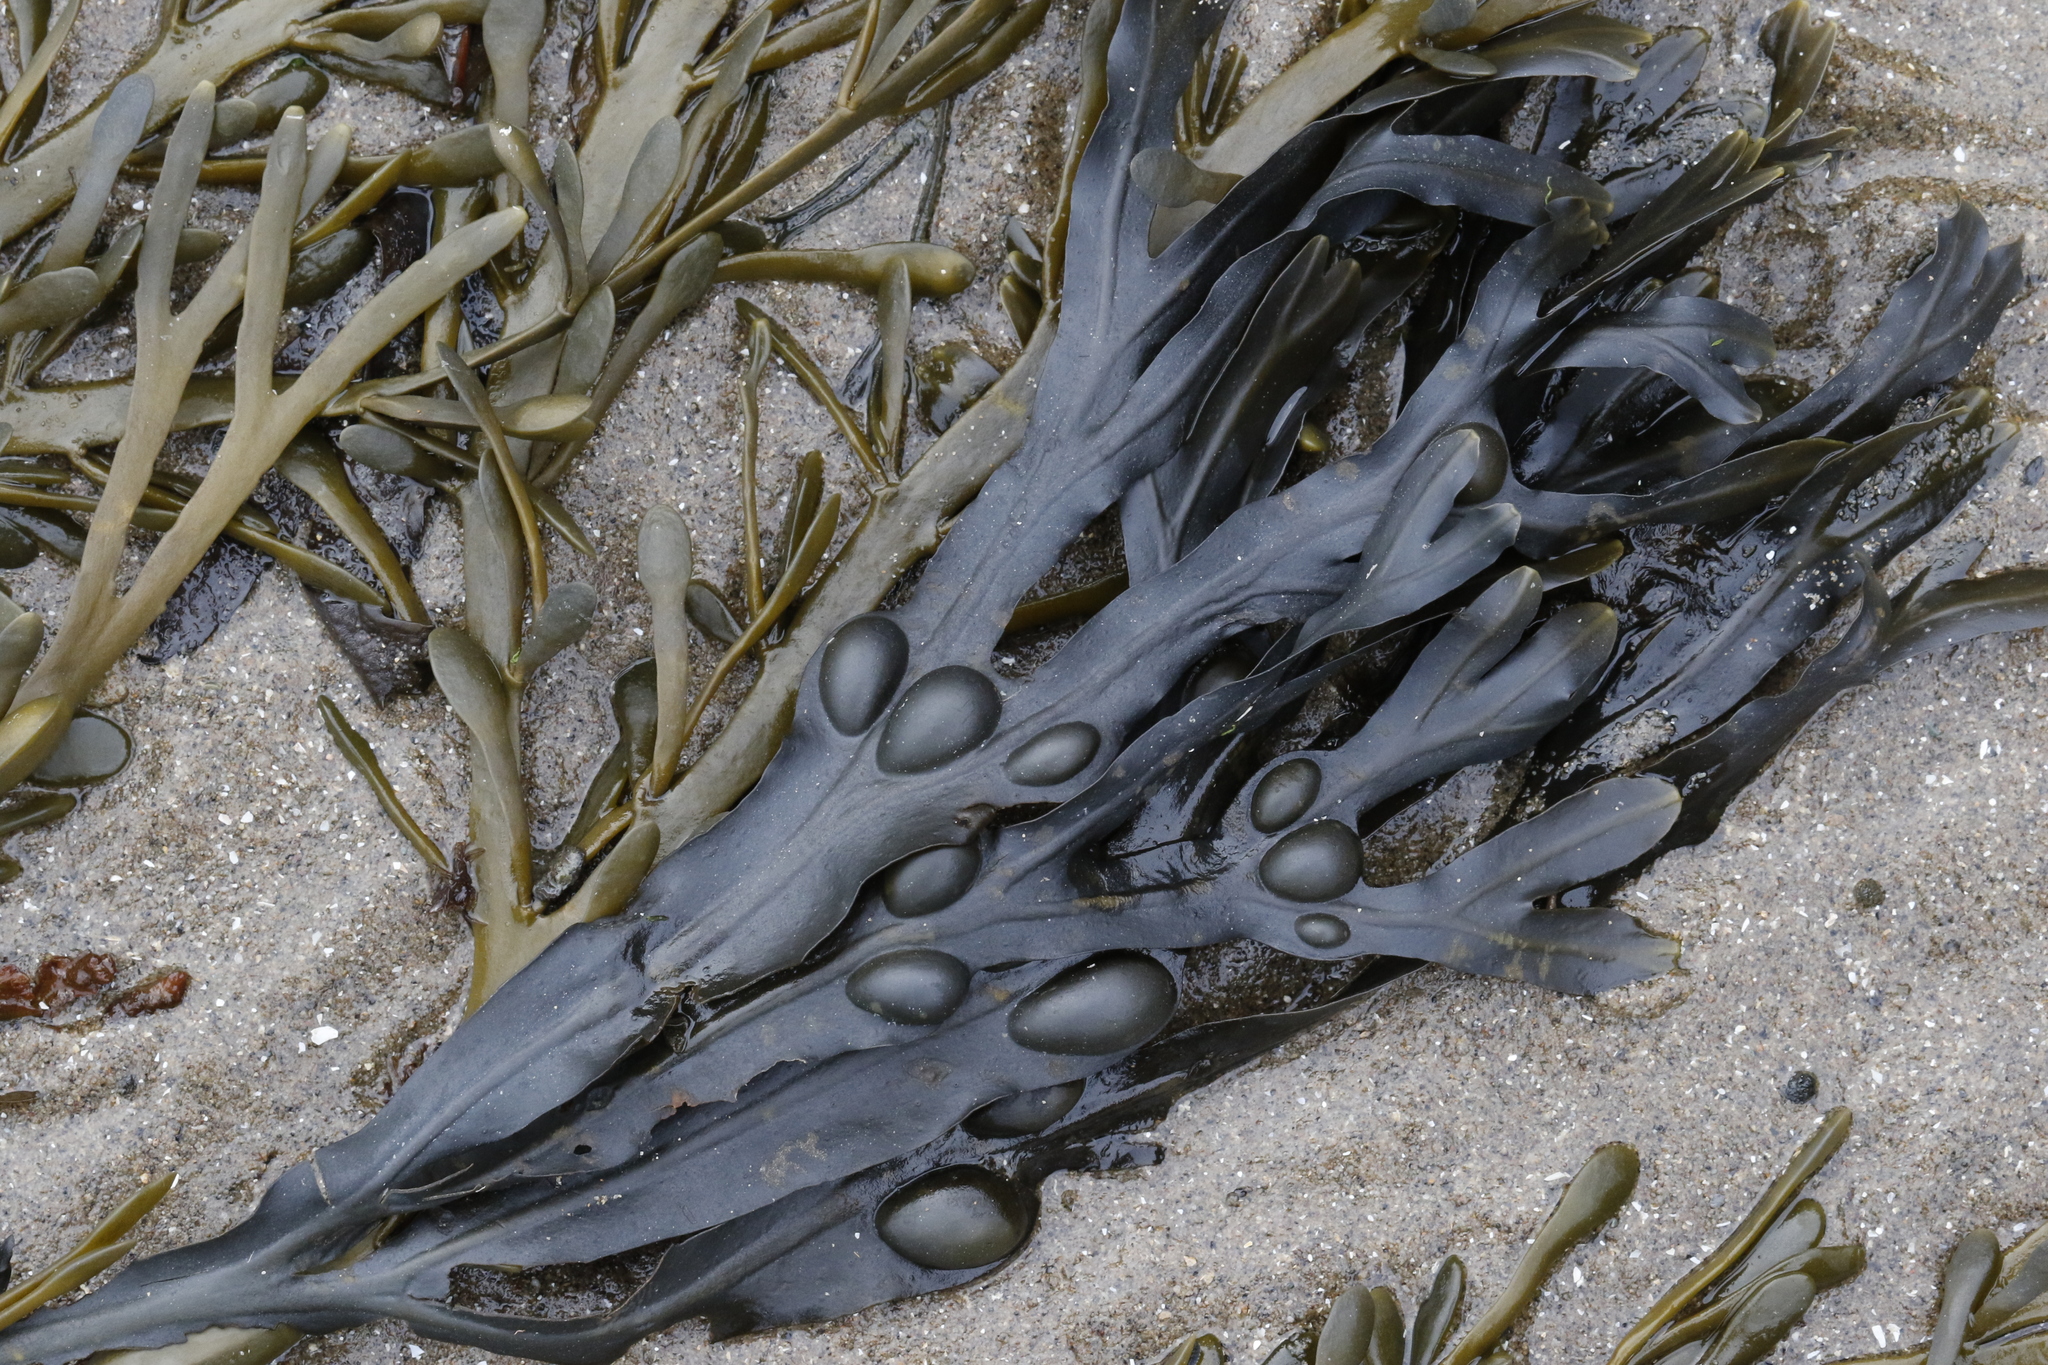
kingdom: Chromista
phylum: Ochrophyta
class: Phaeophyceae
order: Fucales
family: Fucaceae
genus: Fucus
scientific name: Fucus vesiculosus
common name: Bladder wrack
